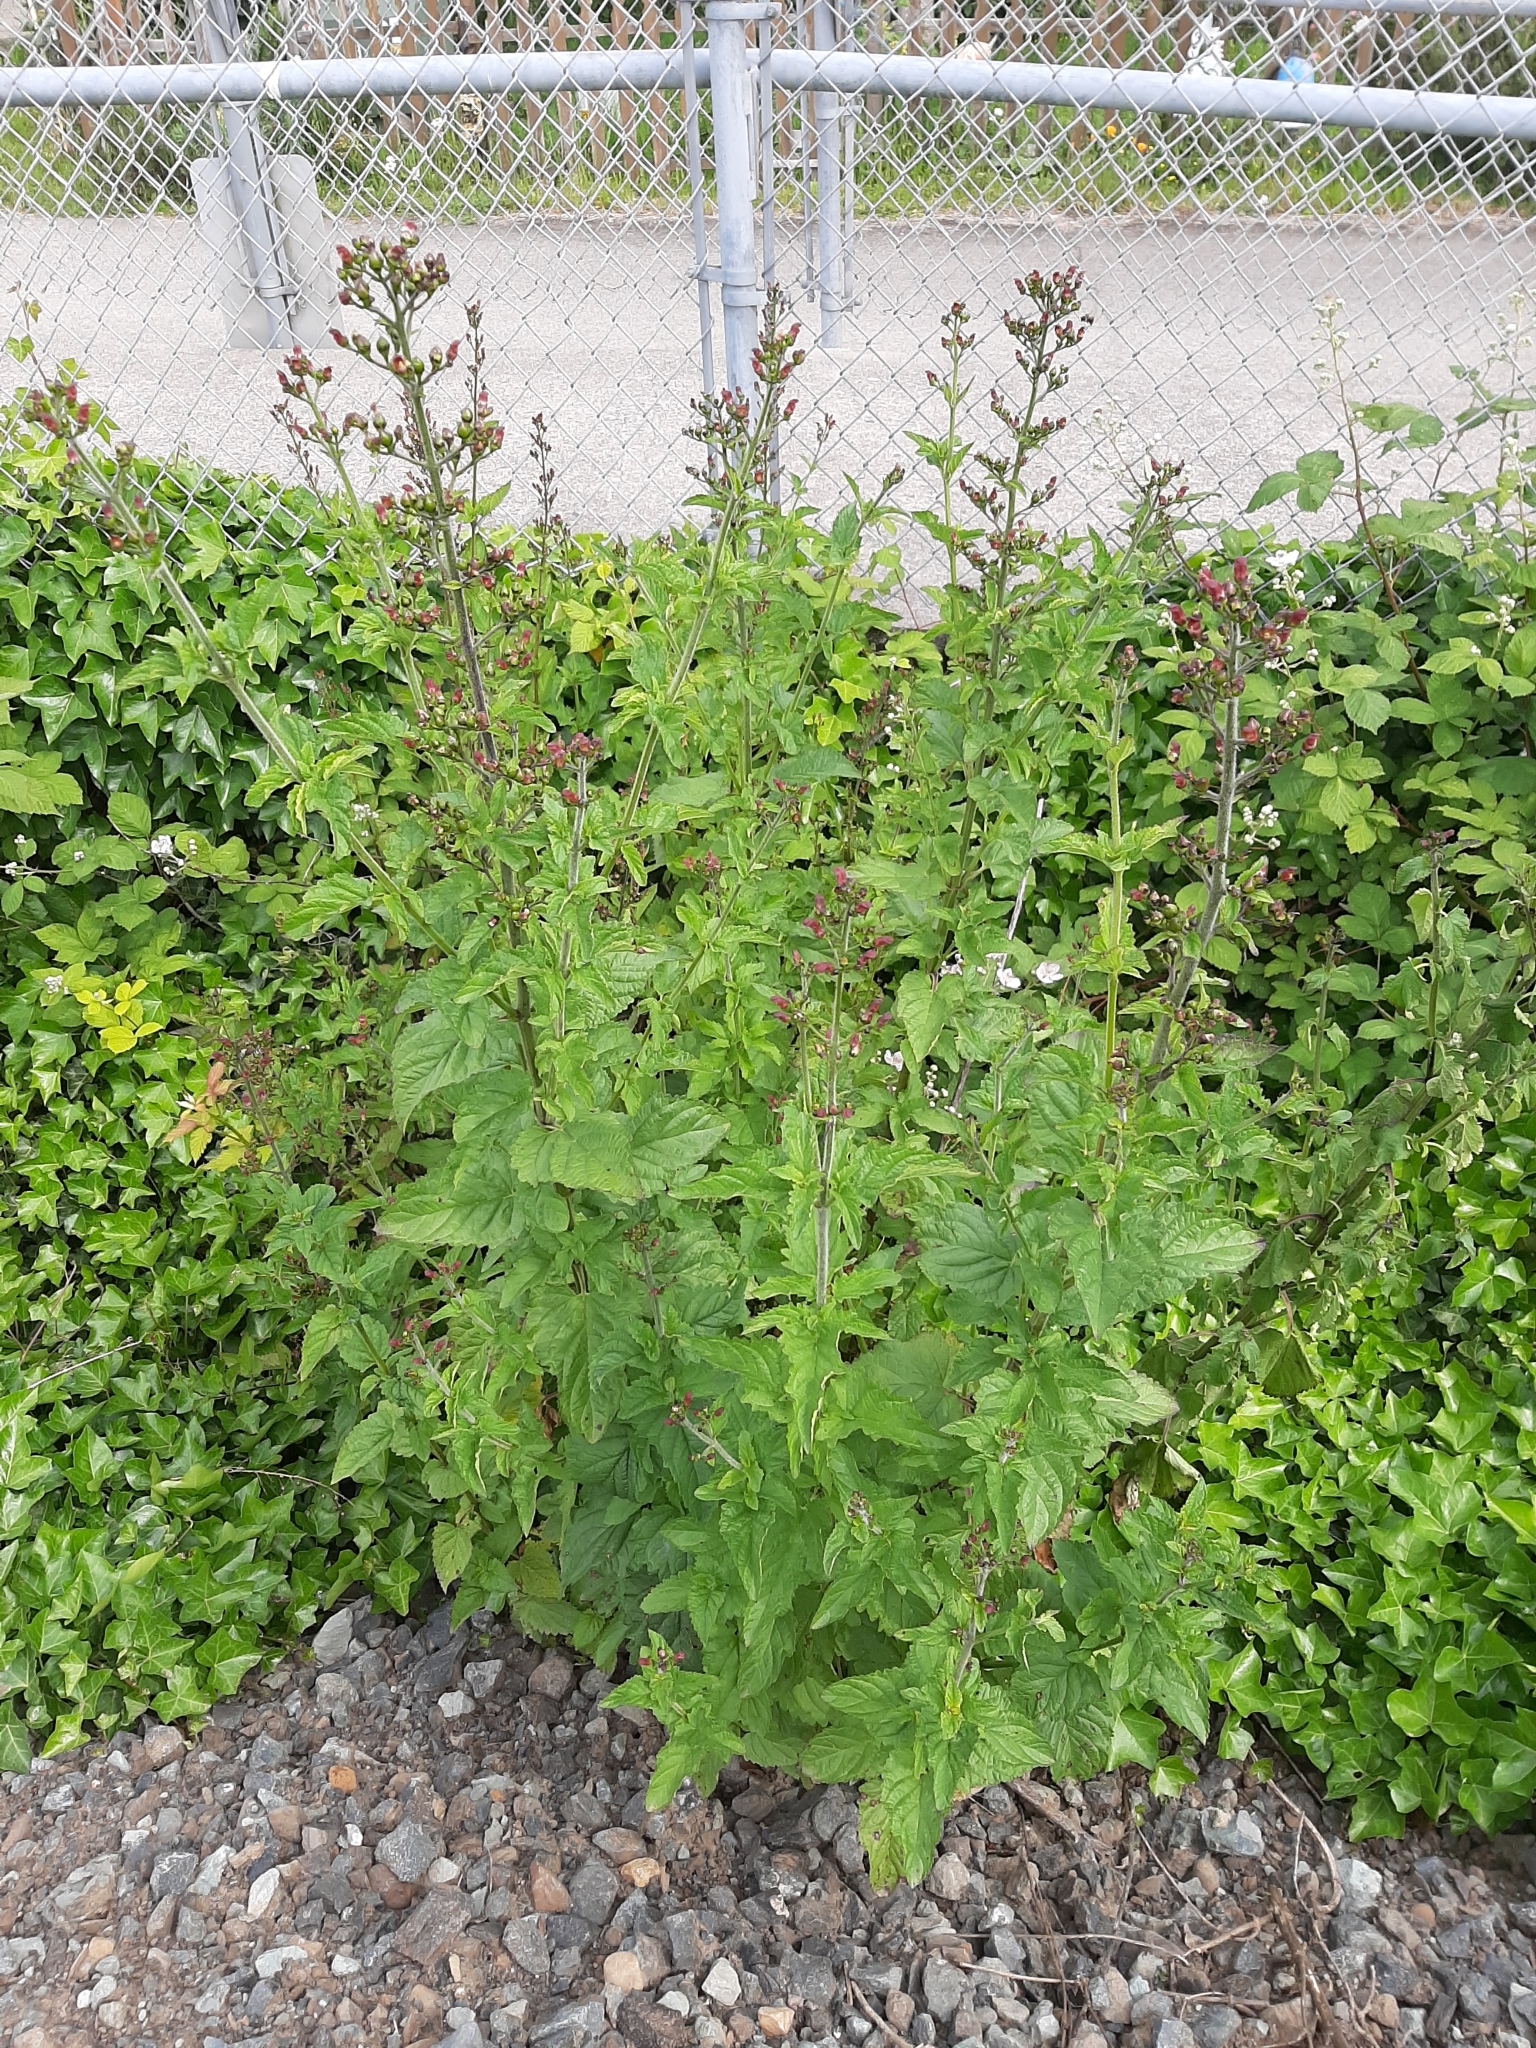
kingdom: Plantae
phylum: Tracheophyta
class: Magnoliopsida
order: Lamiales
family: Scrophulariaceae
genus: Scrophularia
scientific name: Scrophularia californica
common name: California figwort
